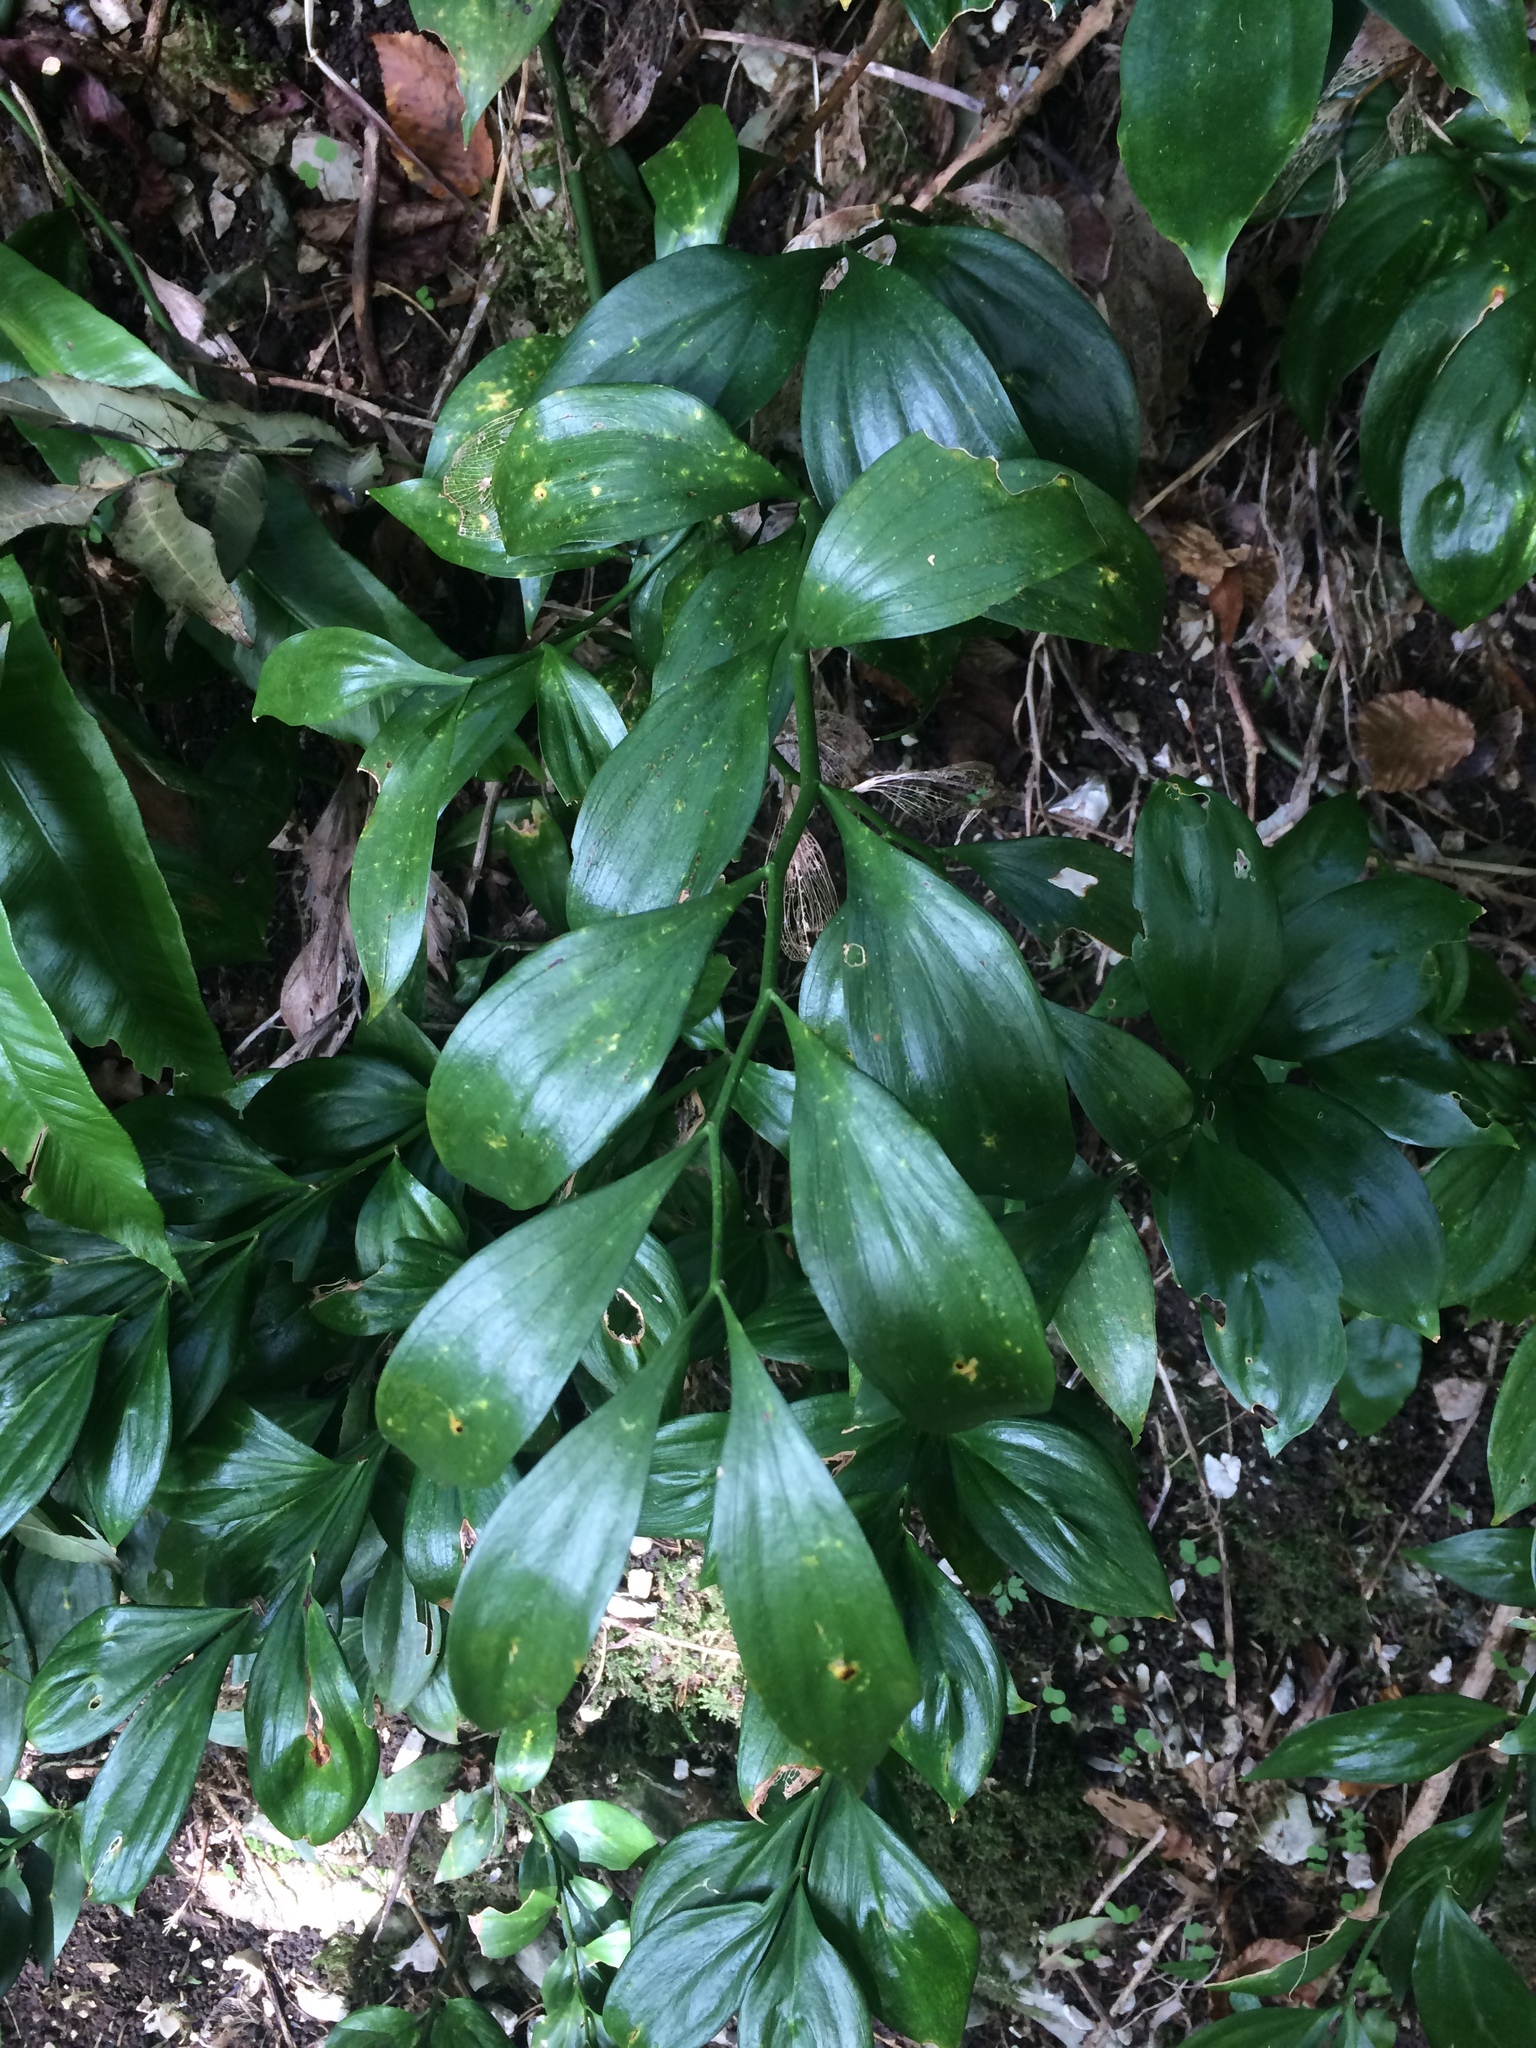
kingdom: Plantae
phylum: Tracheophyta
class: Liliopsida
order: Asparagales
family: Asparagaceae
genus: Ruscus
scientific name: Ruscus colchicus
